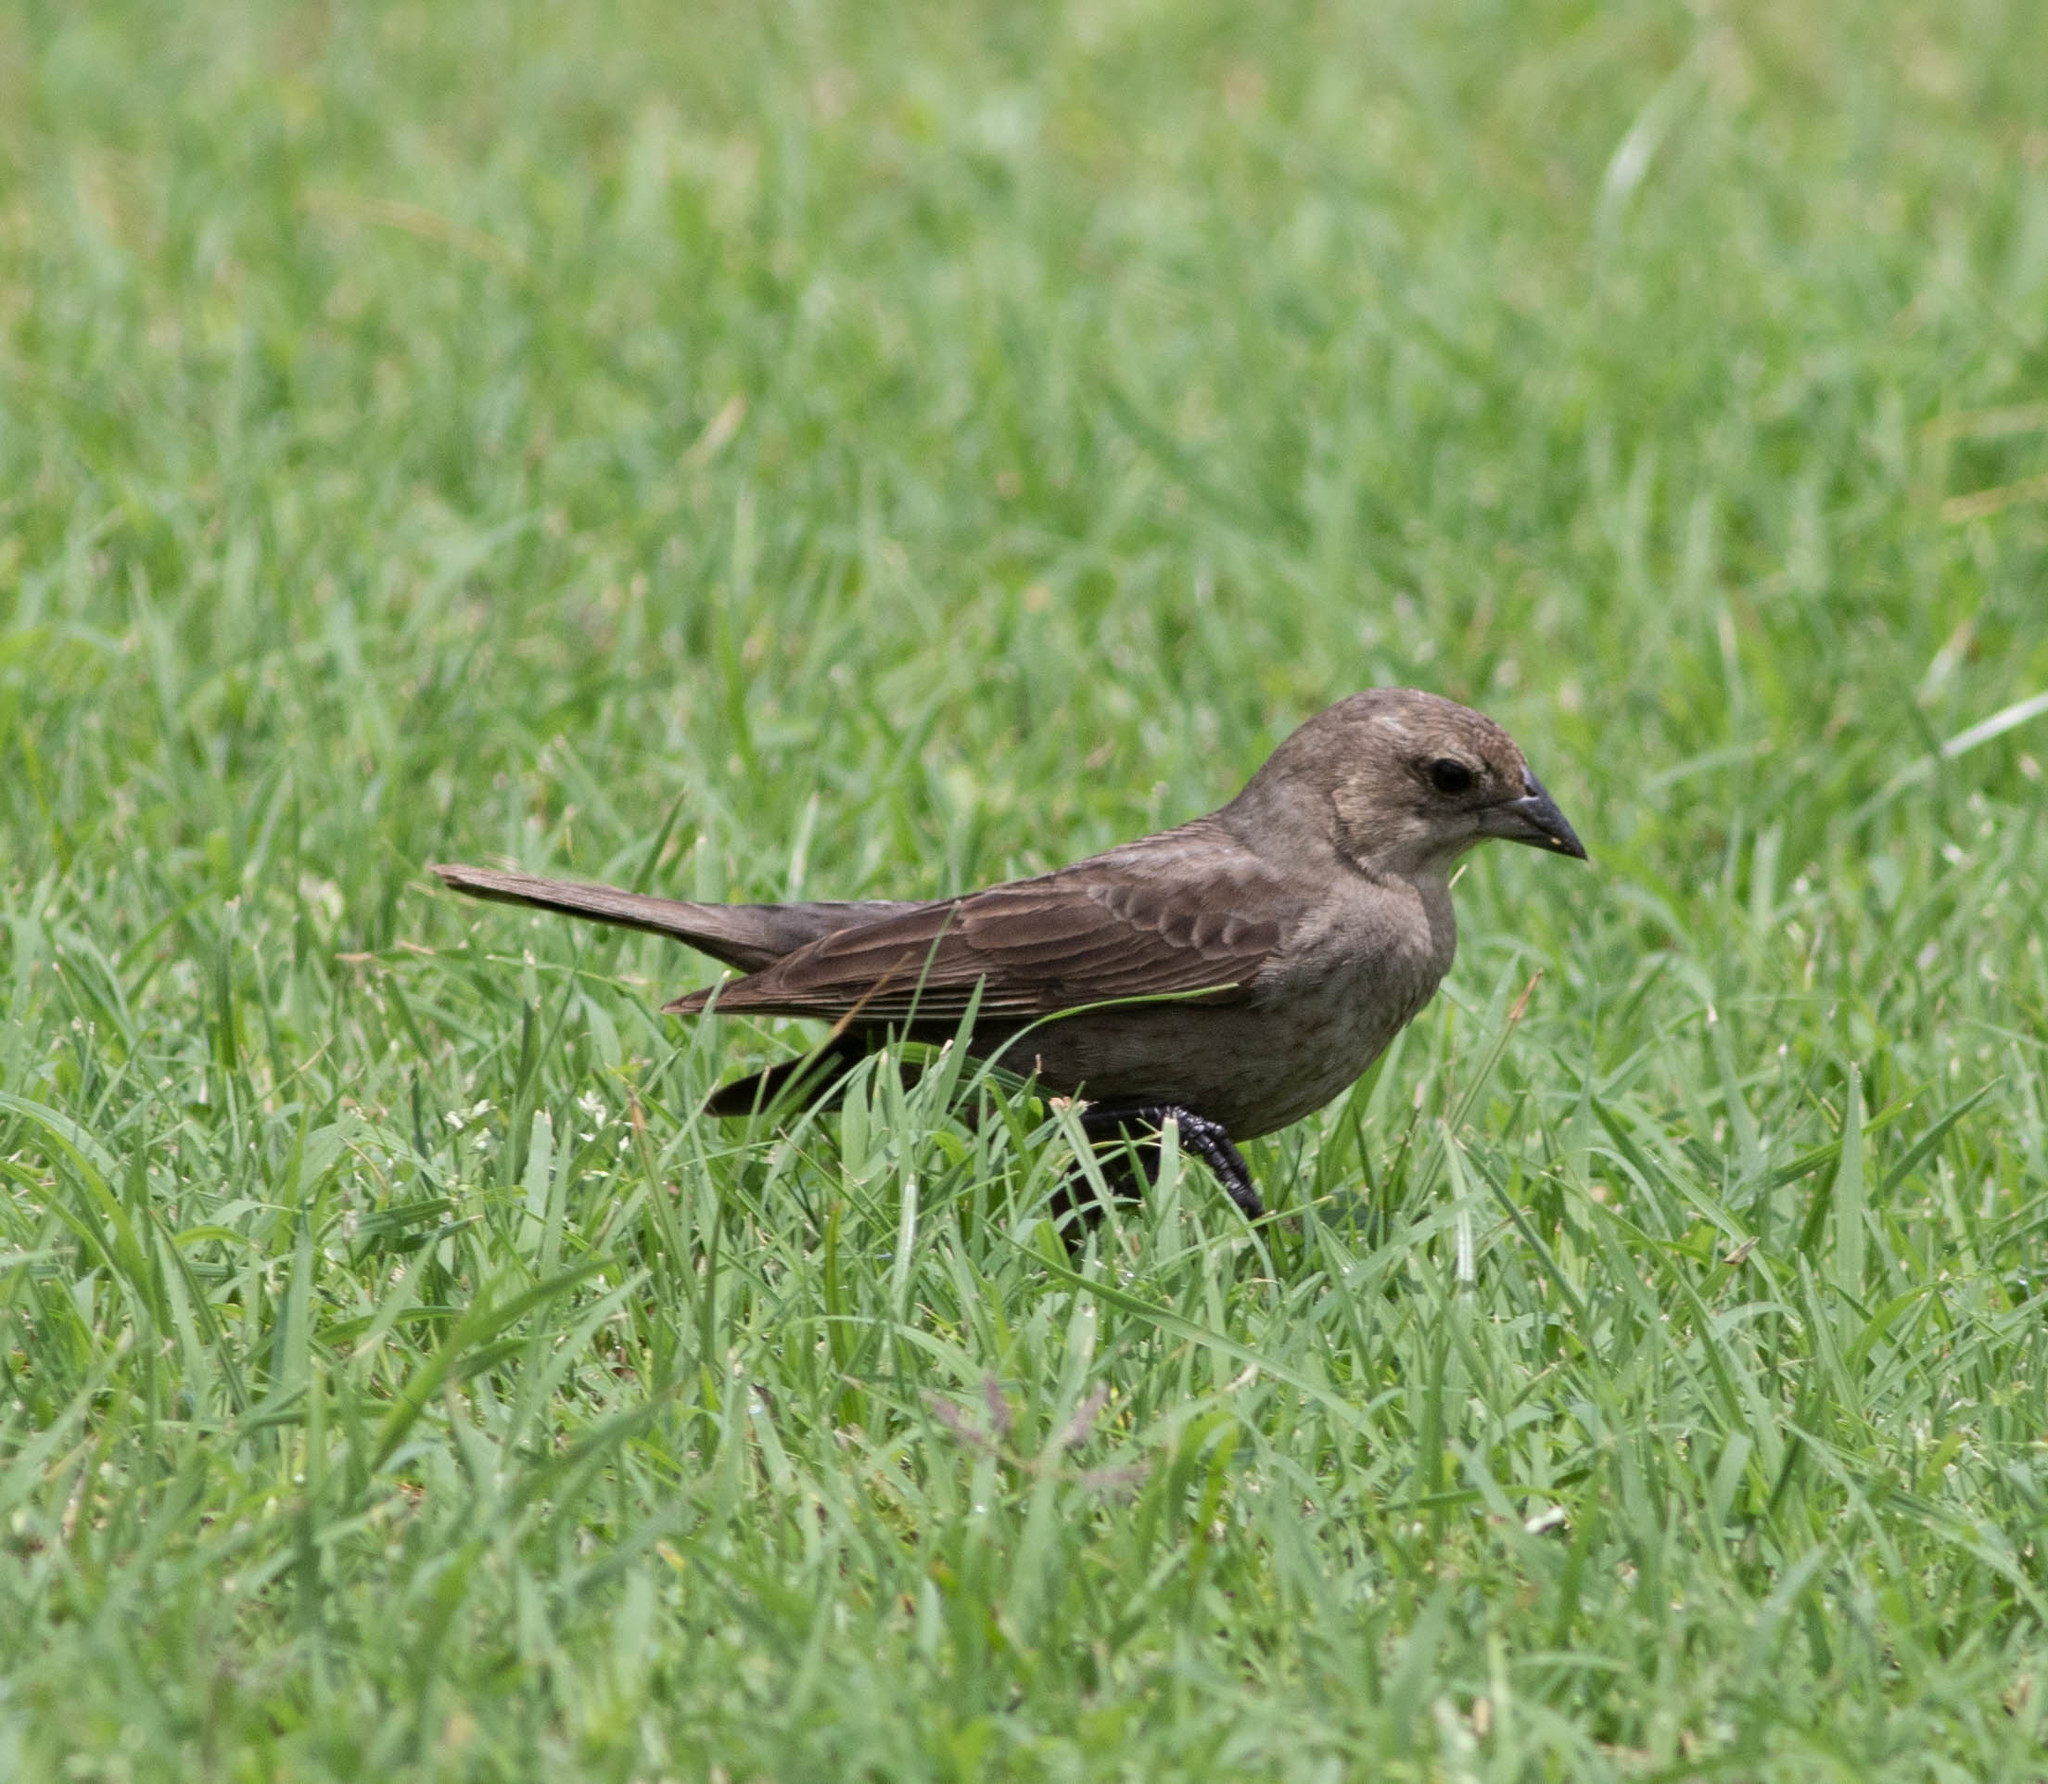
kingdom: Animalia
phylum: Chordata
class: Aves
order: Passeriformes
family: Icteridae
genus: Molothrus
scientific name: Molothrus ater
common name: Brown-headed cowbird
